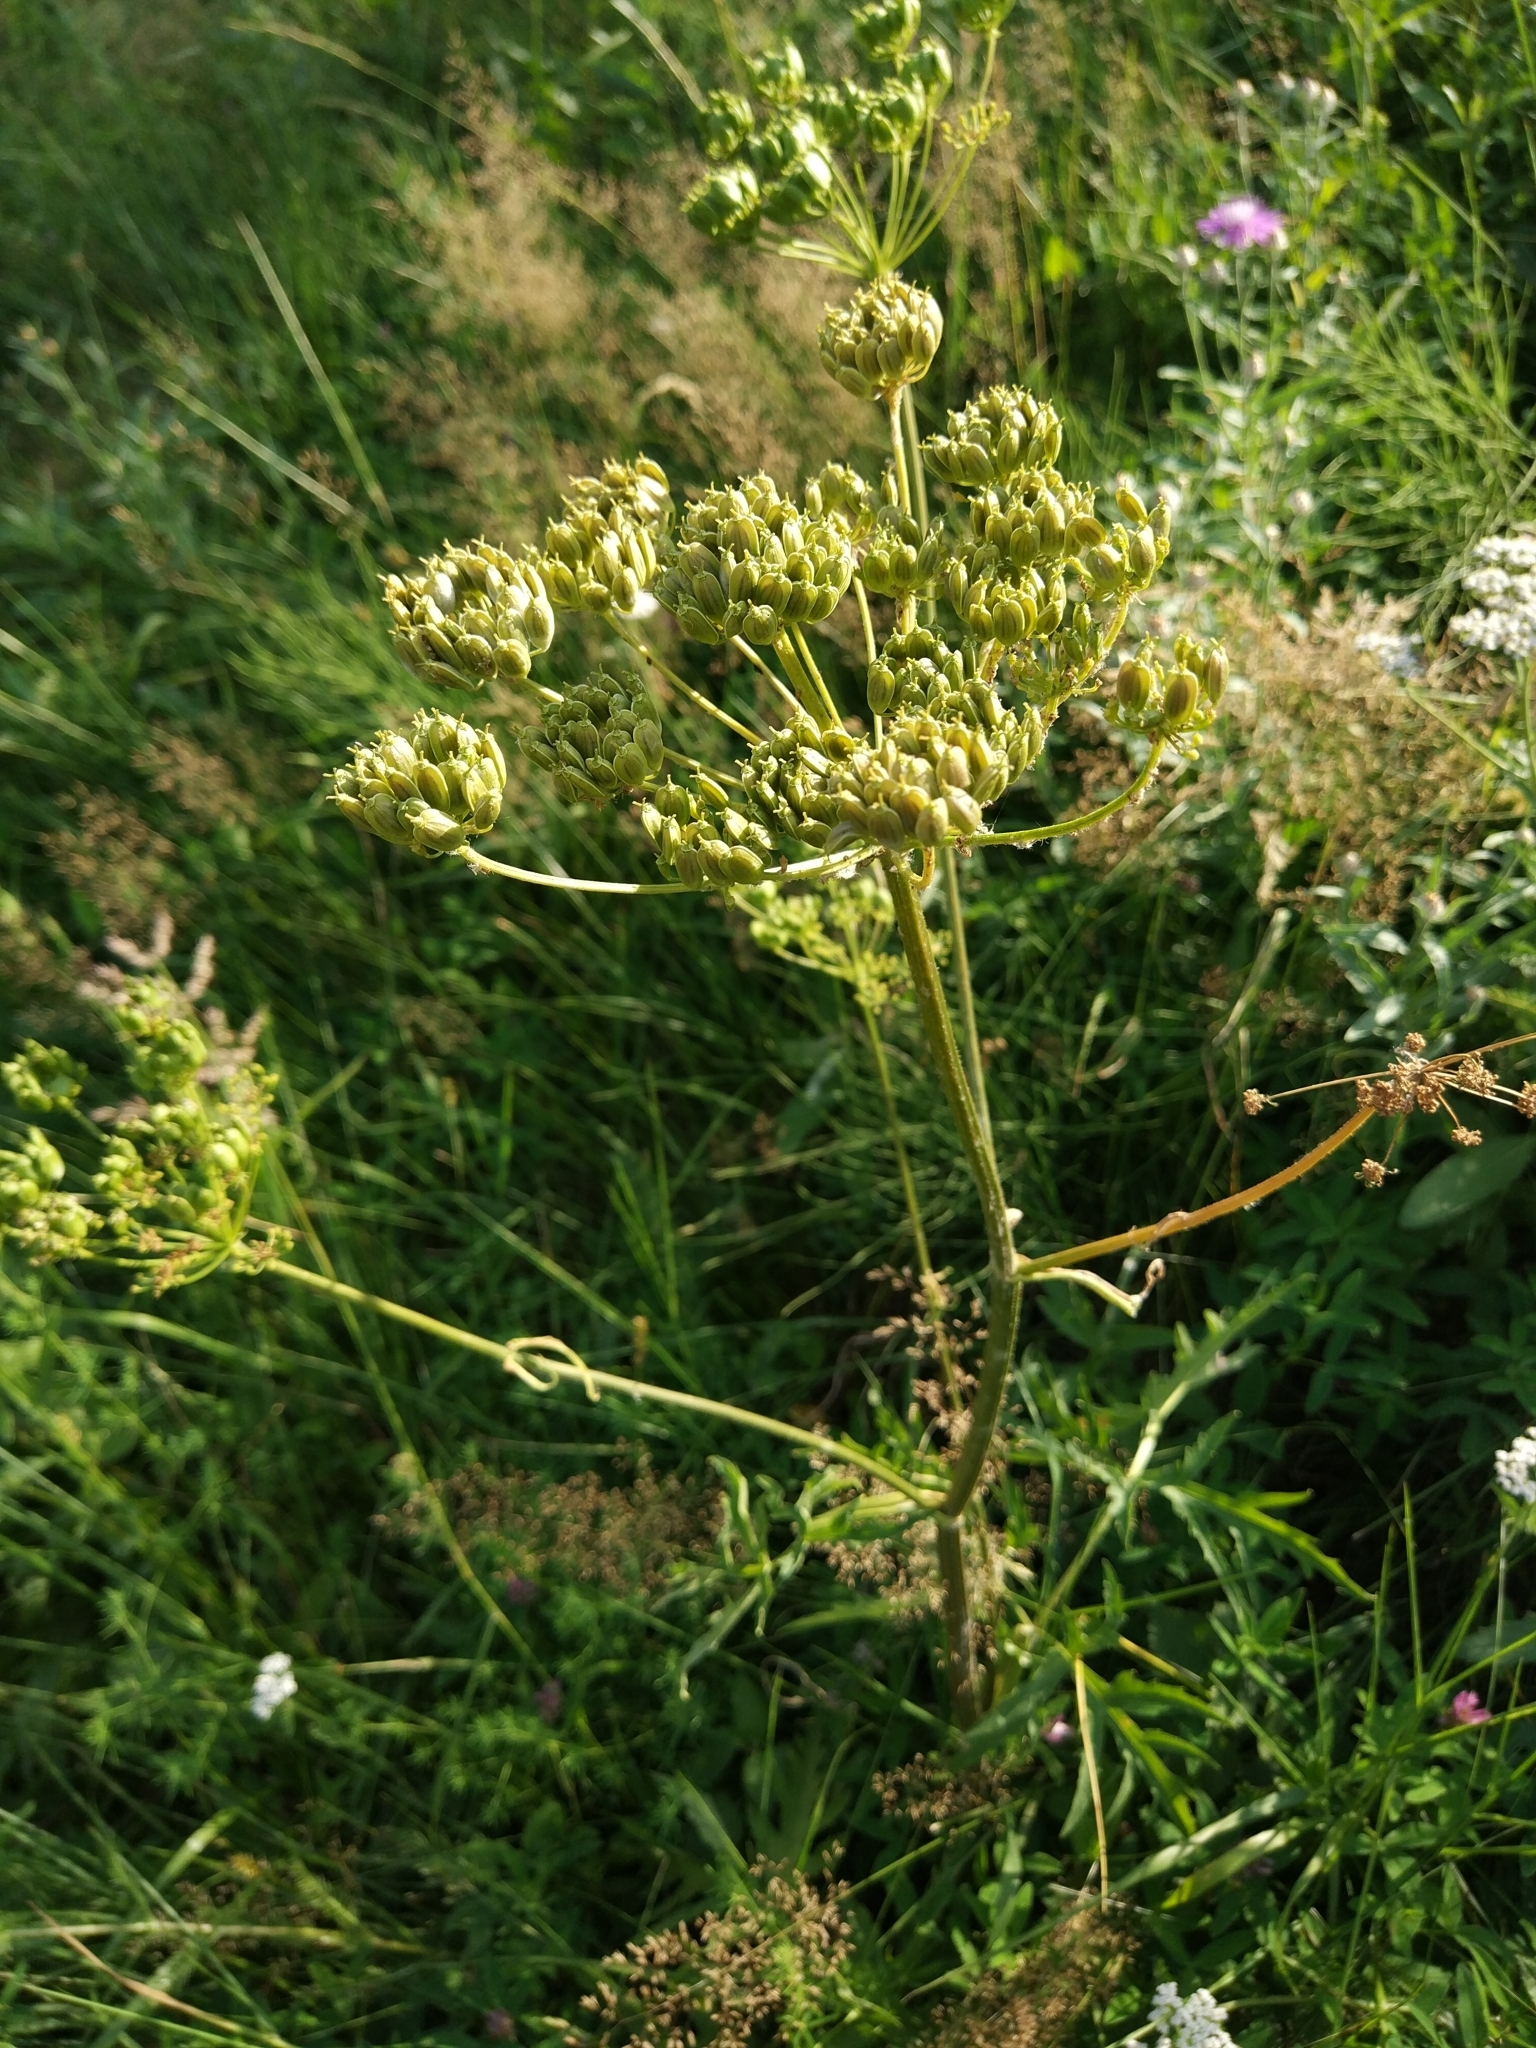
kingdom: Plantae
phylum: Tracheophyta
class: Magnoliopsida
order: Apiales
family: Apiaceae
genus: Heracleum
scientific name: Heracleum sphondylium
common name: Hogweed
